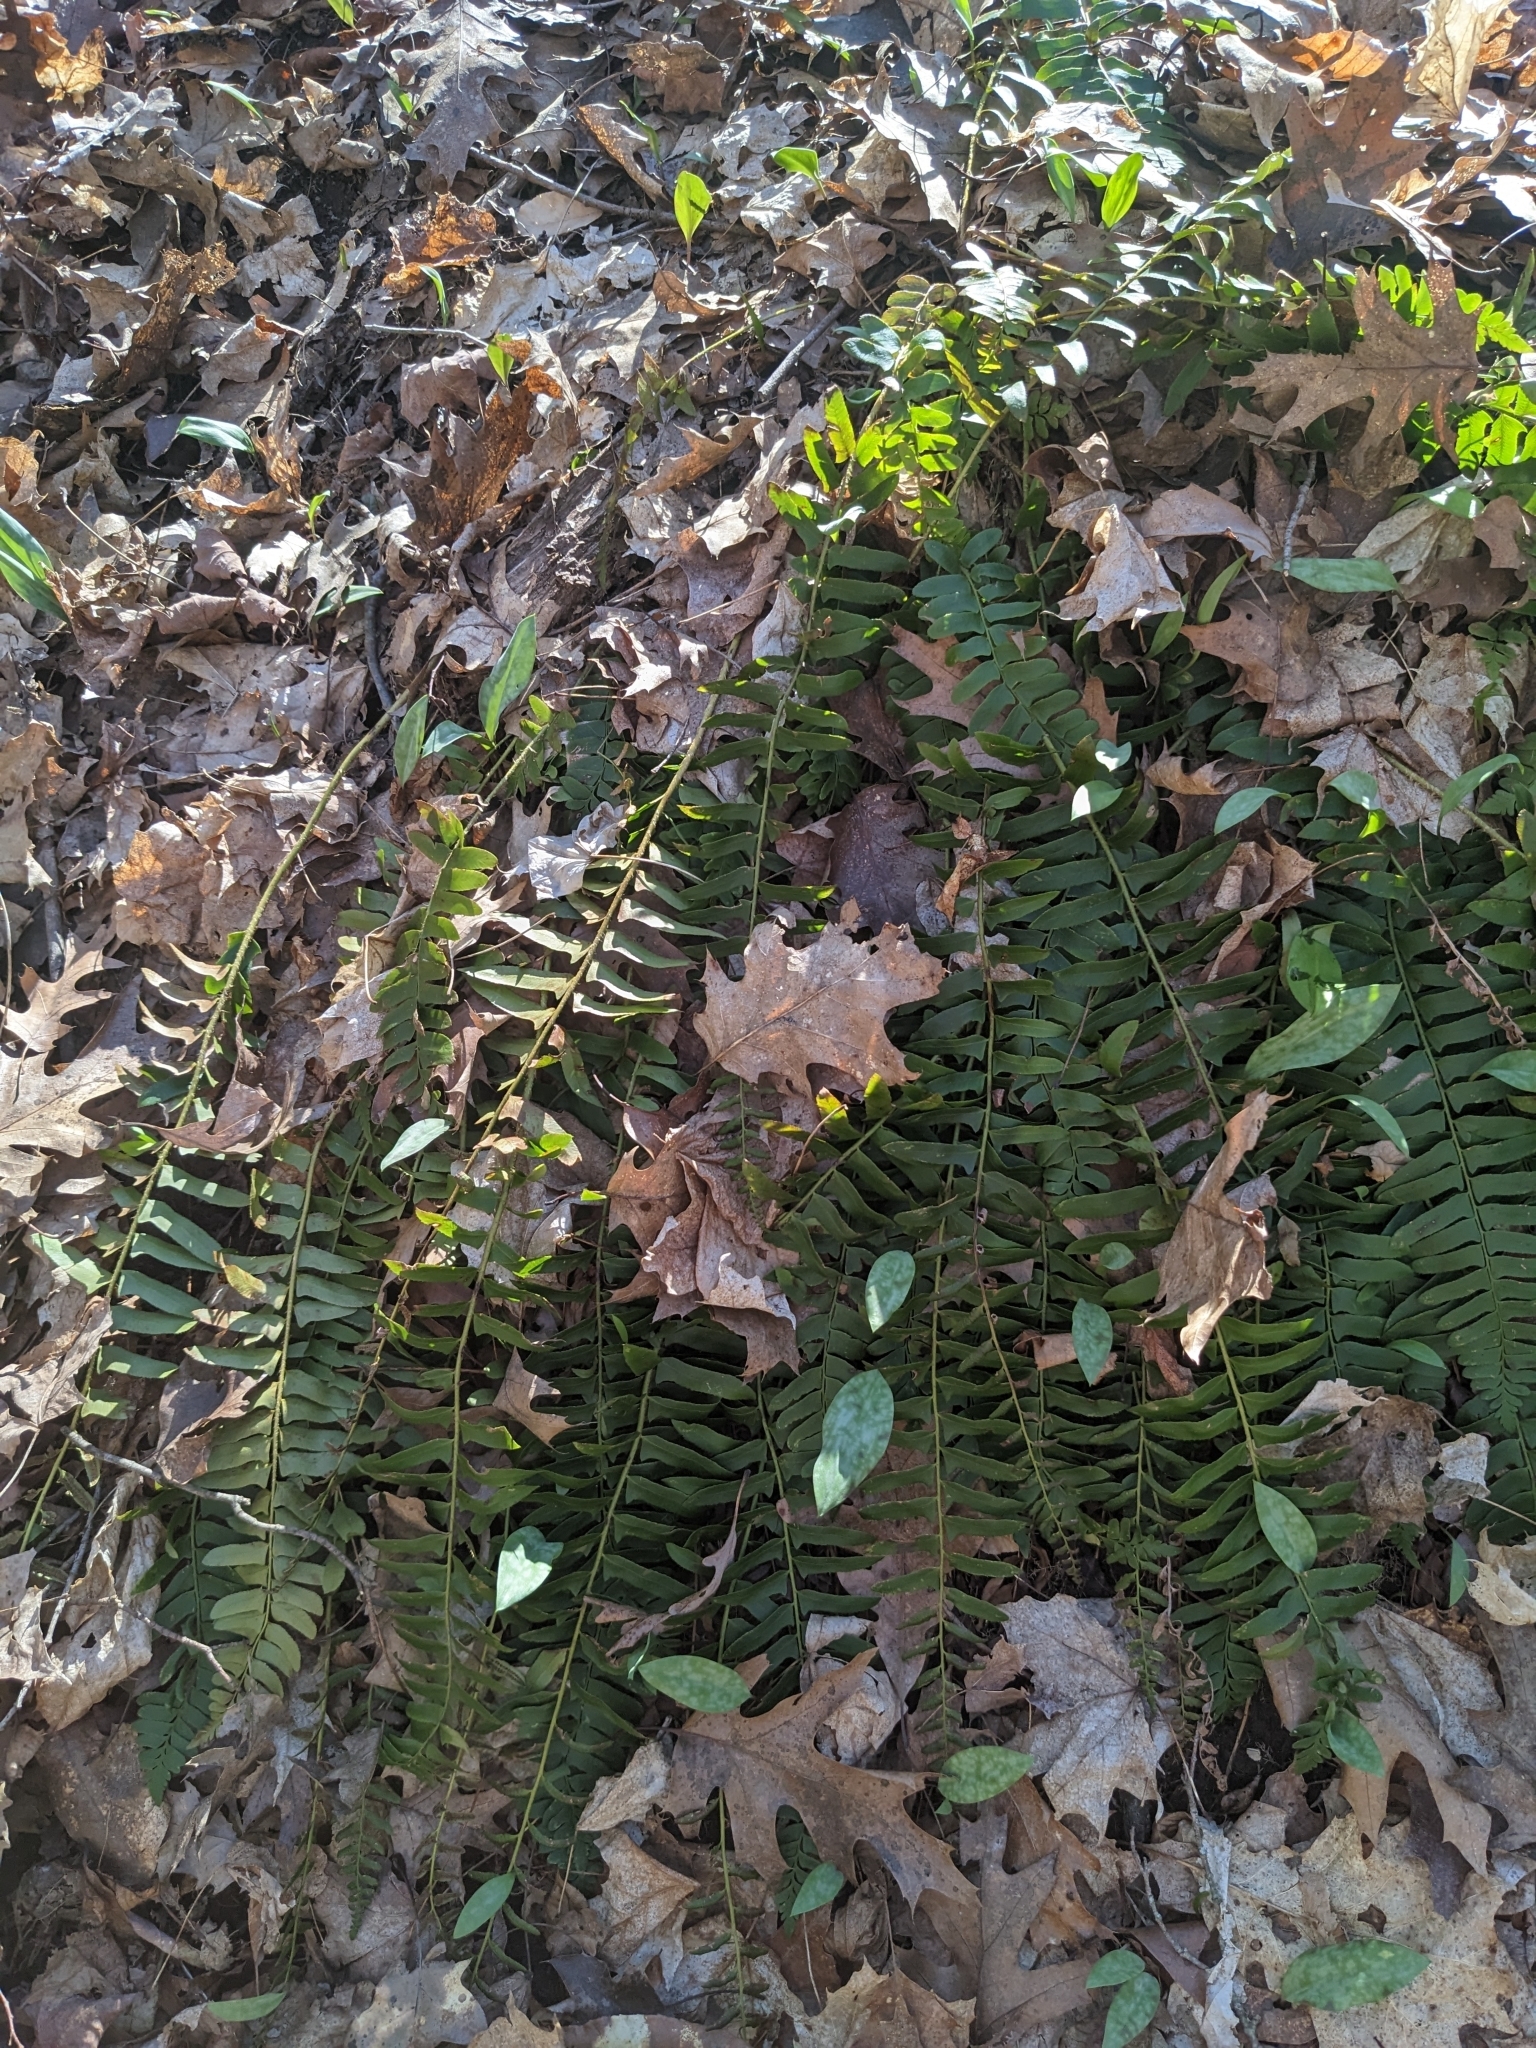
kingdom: Plantae
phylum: Tracheophyta
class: Polypodiopsida
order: Polypodiales
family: Dryopteridaceae
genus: Polystichum
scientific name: Polystichum acrostichoides
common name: Christmas fern
